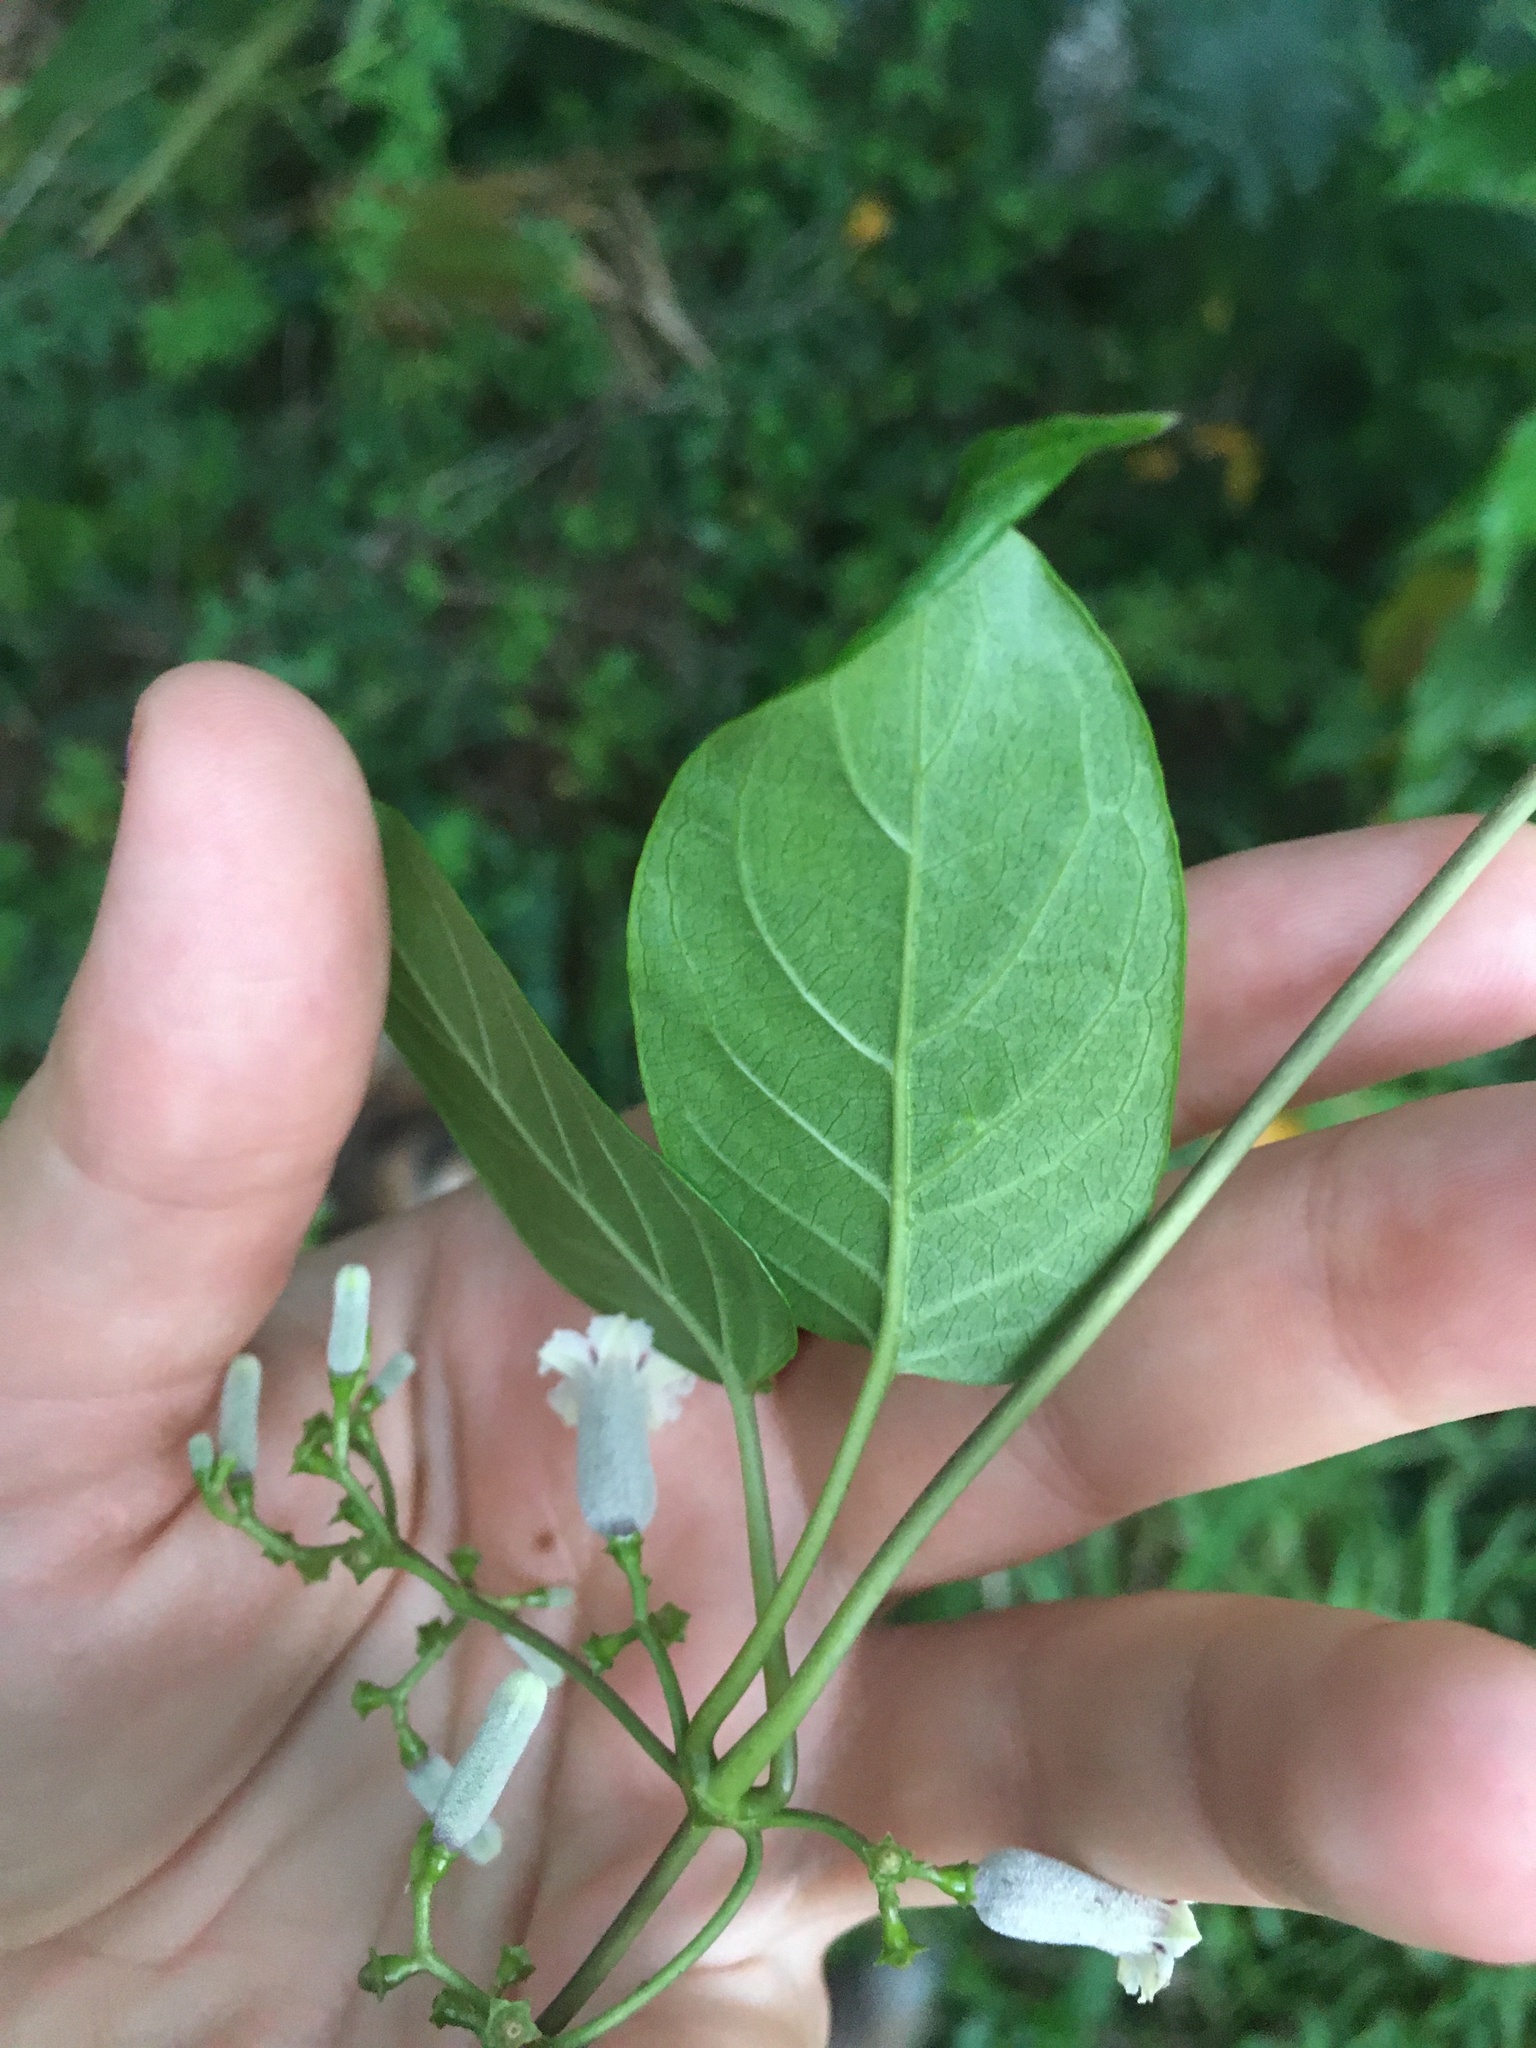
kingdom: Plantae
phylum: Tracheophyta
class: Magnoliopsida
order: Gentianales
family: Rubiaceae
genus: Paederia
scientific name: Paederia foetida
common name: Stinkvine
